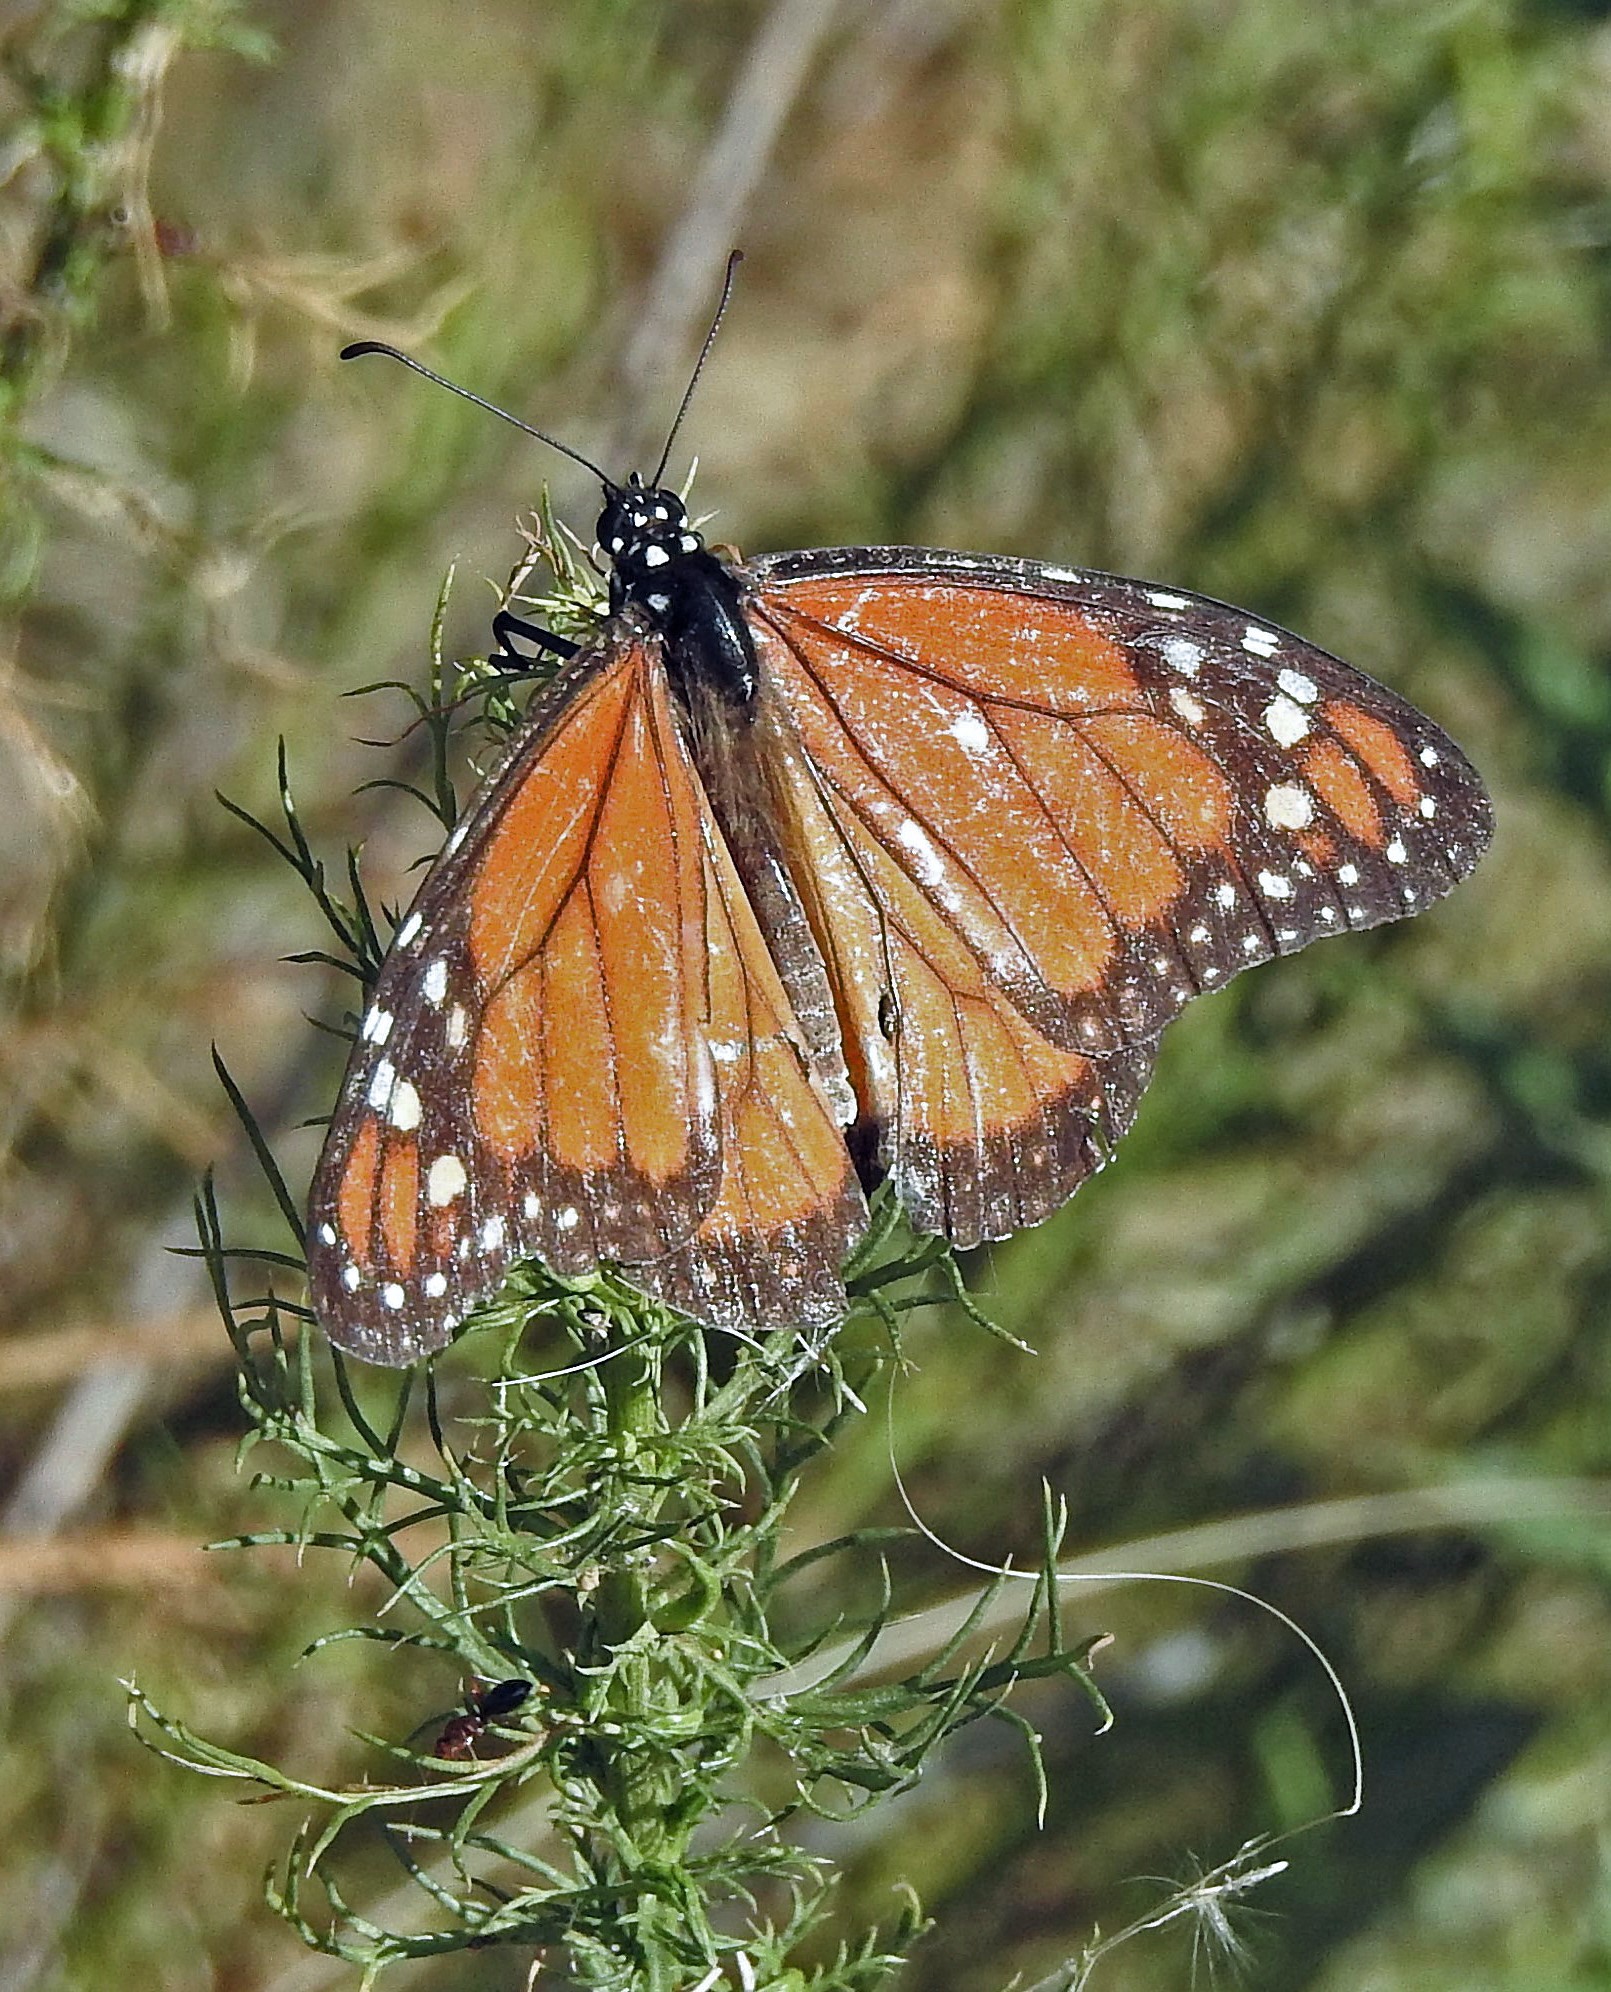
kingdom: Animalia
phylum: Arthropoda
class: Insecta
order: Lepidoptera
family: Nymphalidae
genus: Danaus
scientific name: Danaus erippus
